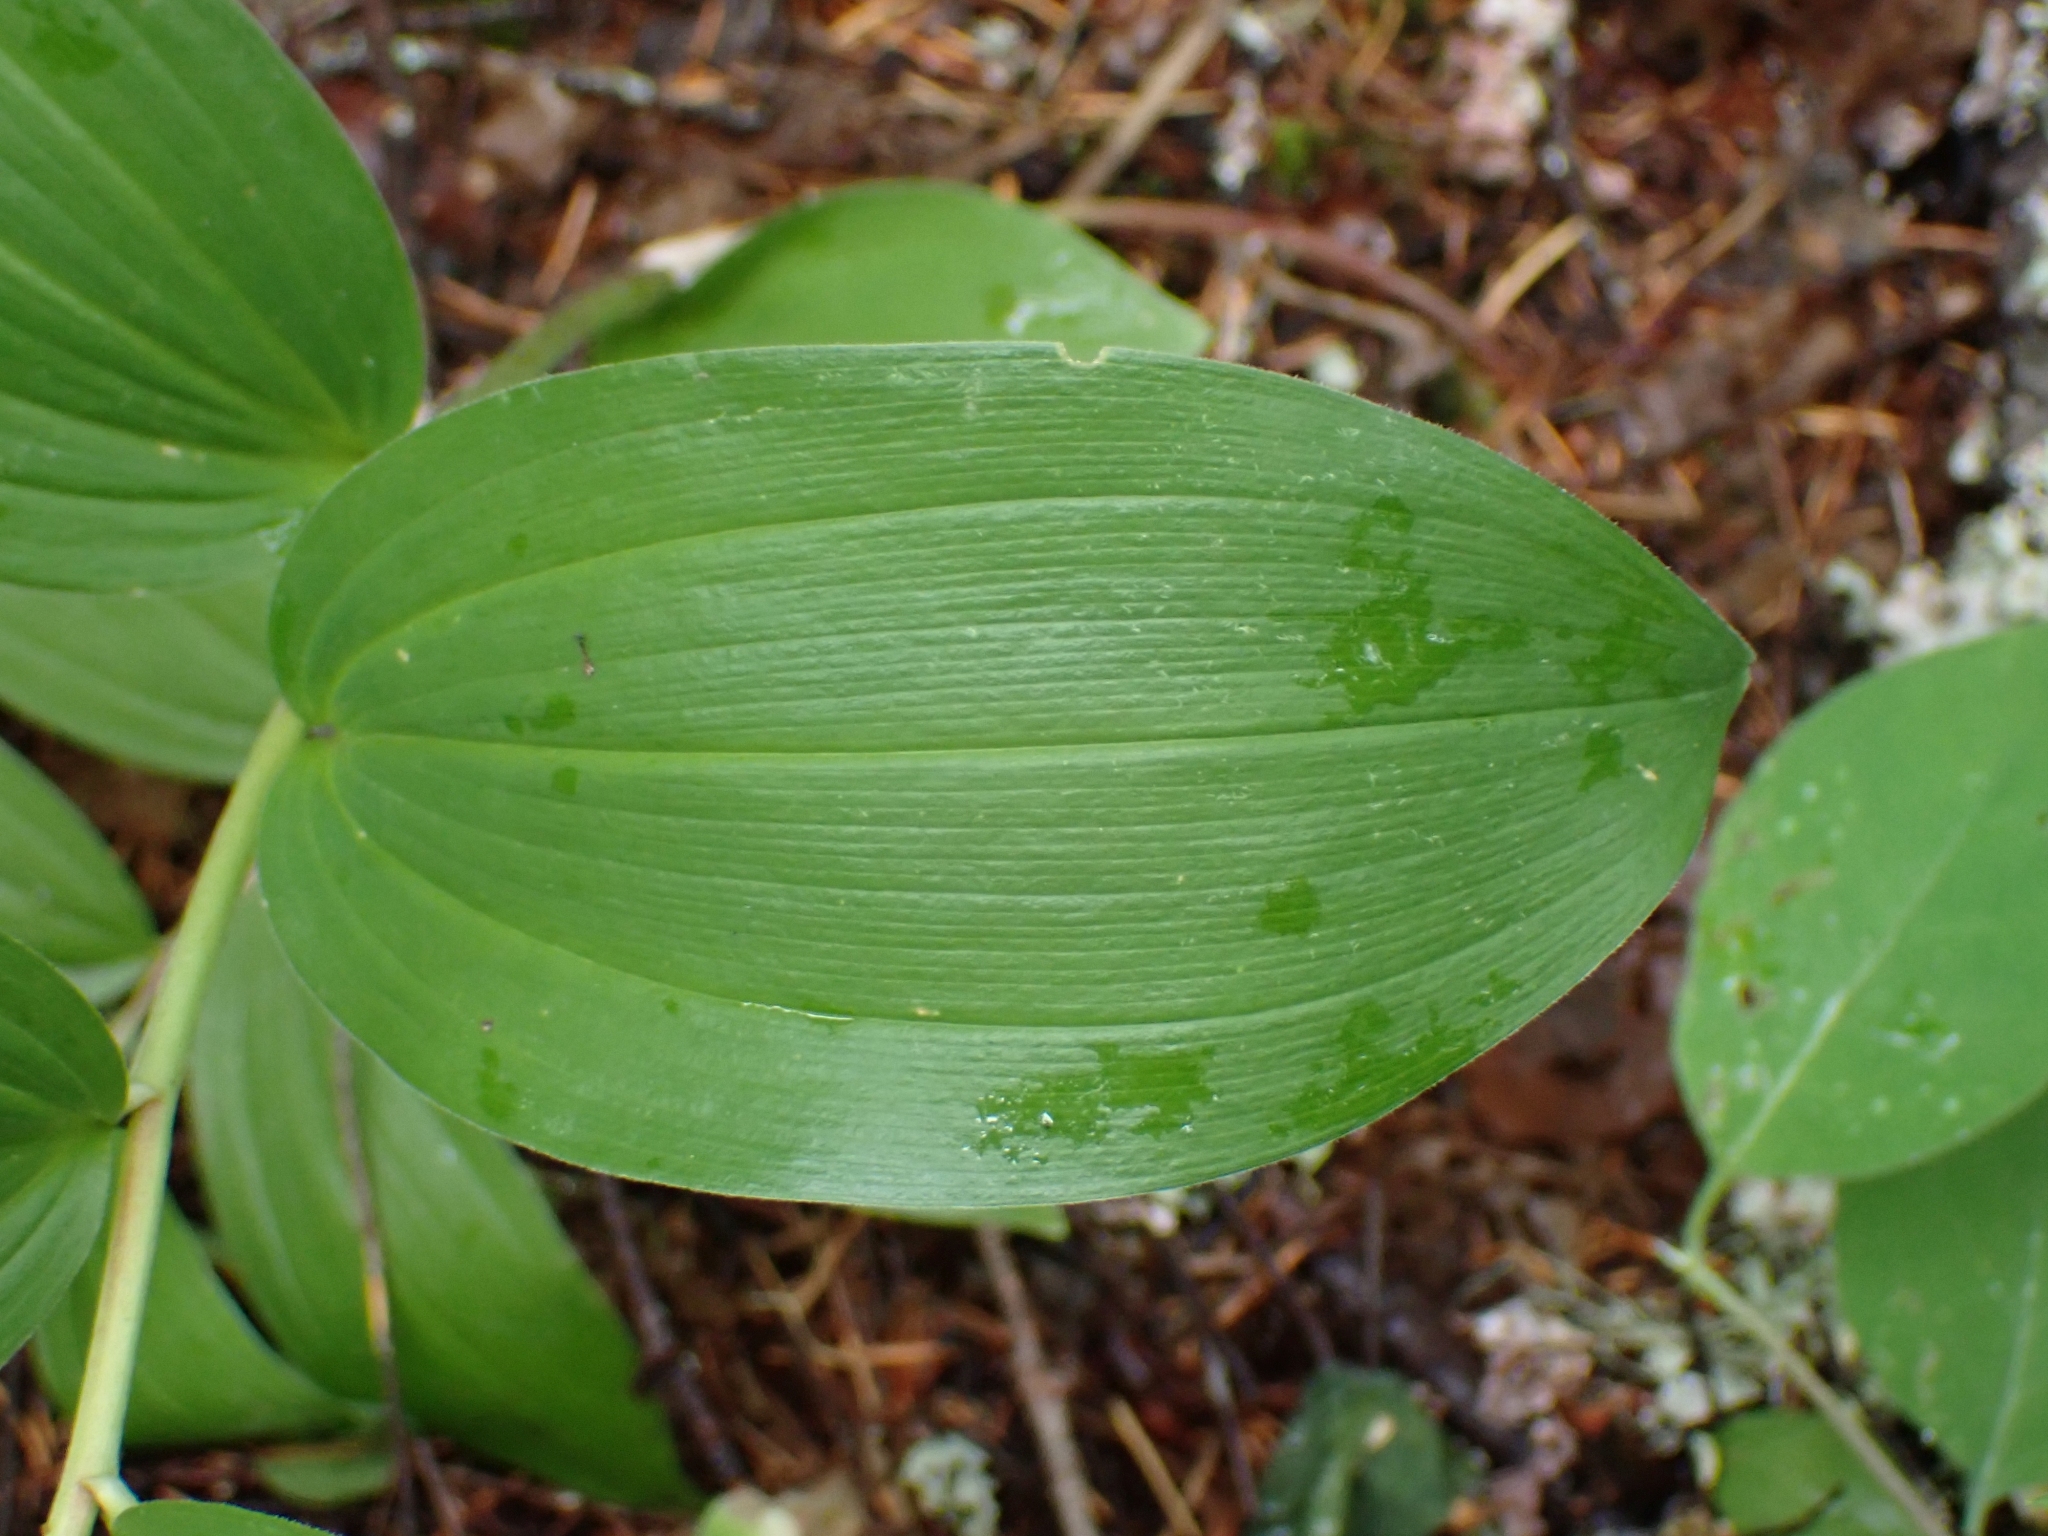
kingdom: Plantae
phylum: Tracheophyta
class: Liliopsida
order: Asparagales
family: Asparagaceae
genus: Maianthemum
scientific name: Maianthemum racemosum
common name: False spikenard
